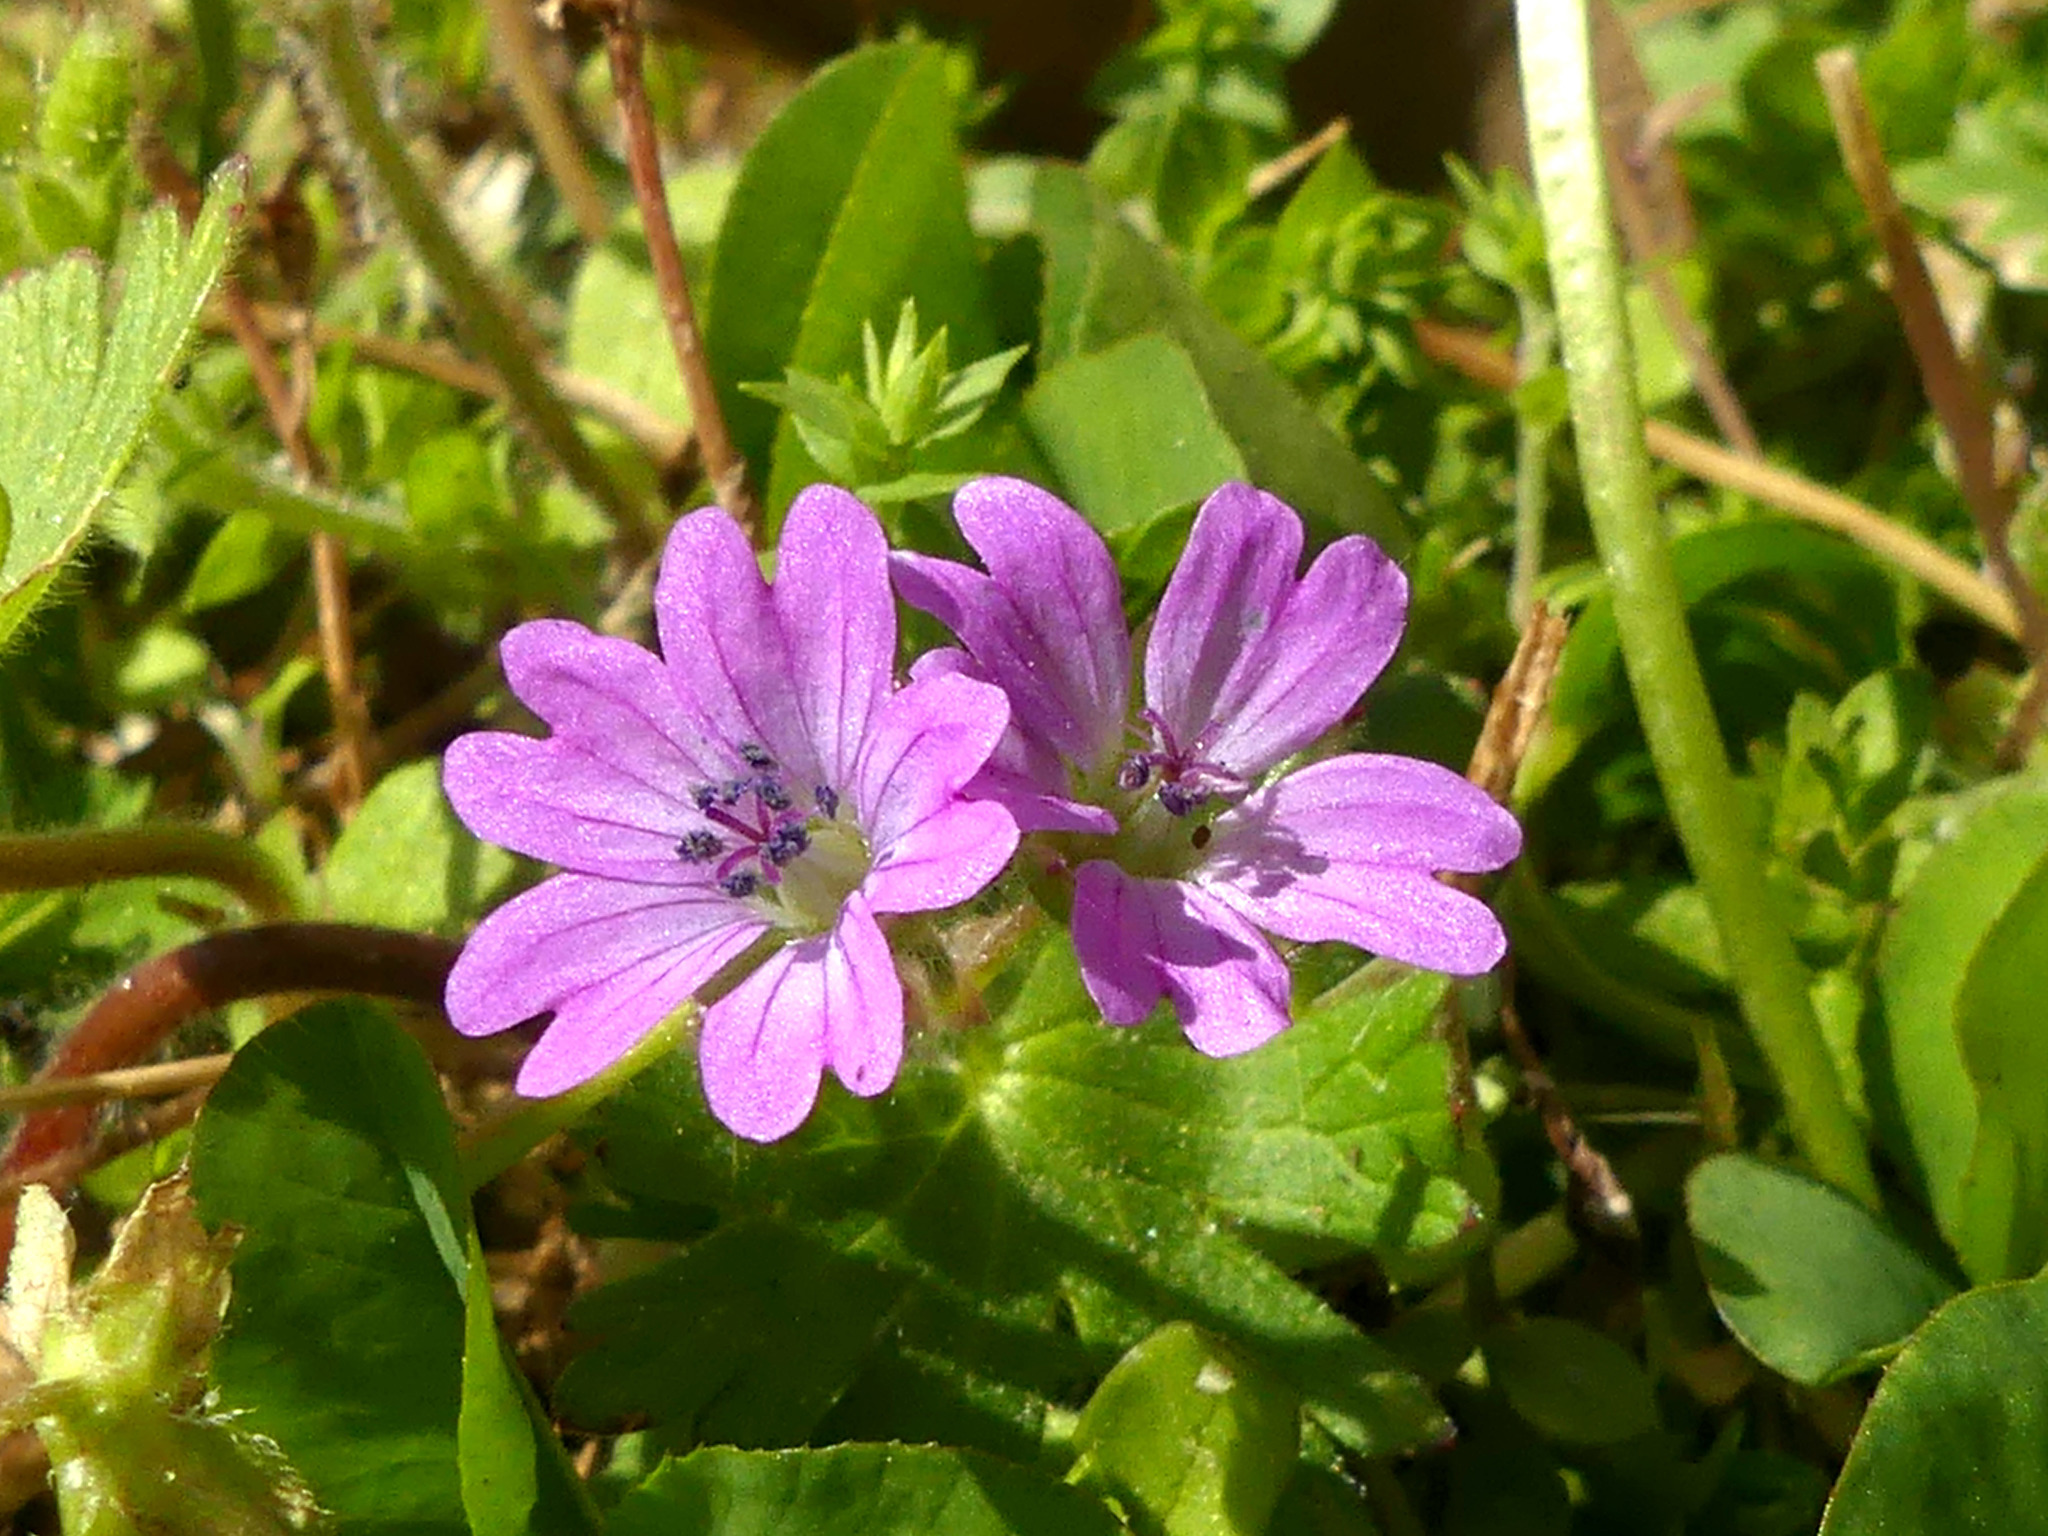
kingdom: Plantae
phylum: Tracheophyta
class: Magnoliopsida
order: Geraniales
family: Geraniaceae
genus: Geranium
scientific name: Geranium molle
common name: Dove's-foot crane's-bill
